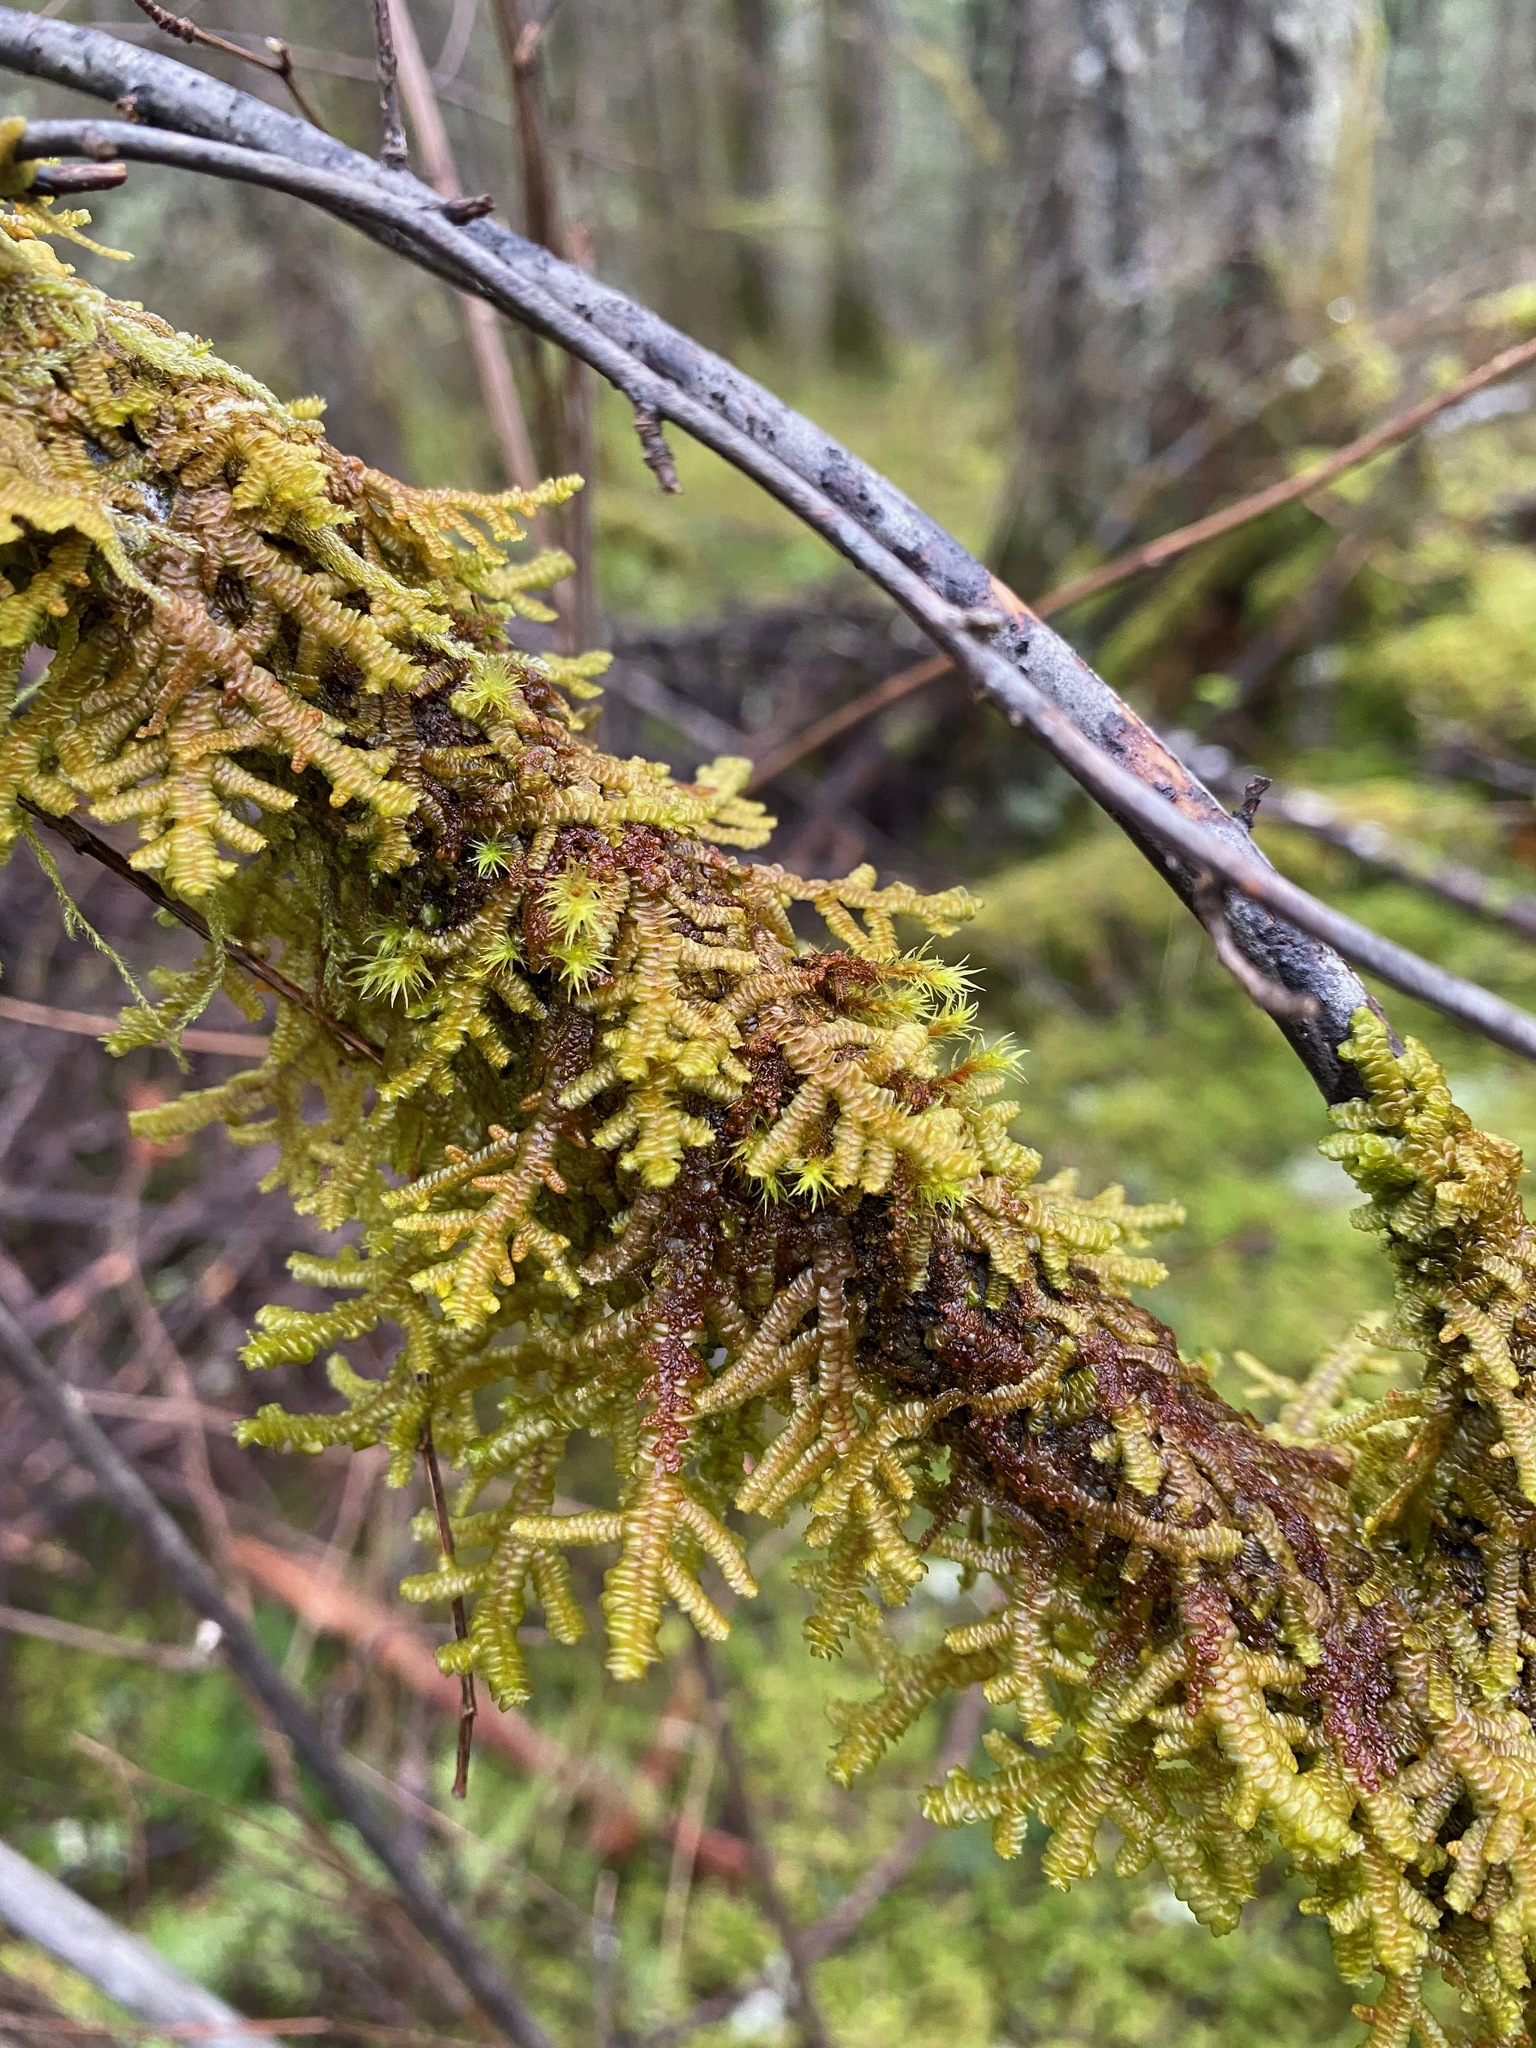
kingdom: Plantae
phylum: Marchantiophyta
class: Jungermanniopsida
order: Porellales
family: Porellaceae
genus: Porella
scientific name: Porella navicularis
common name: Tree ruffle liverwort
